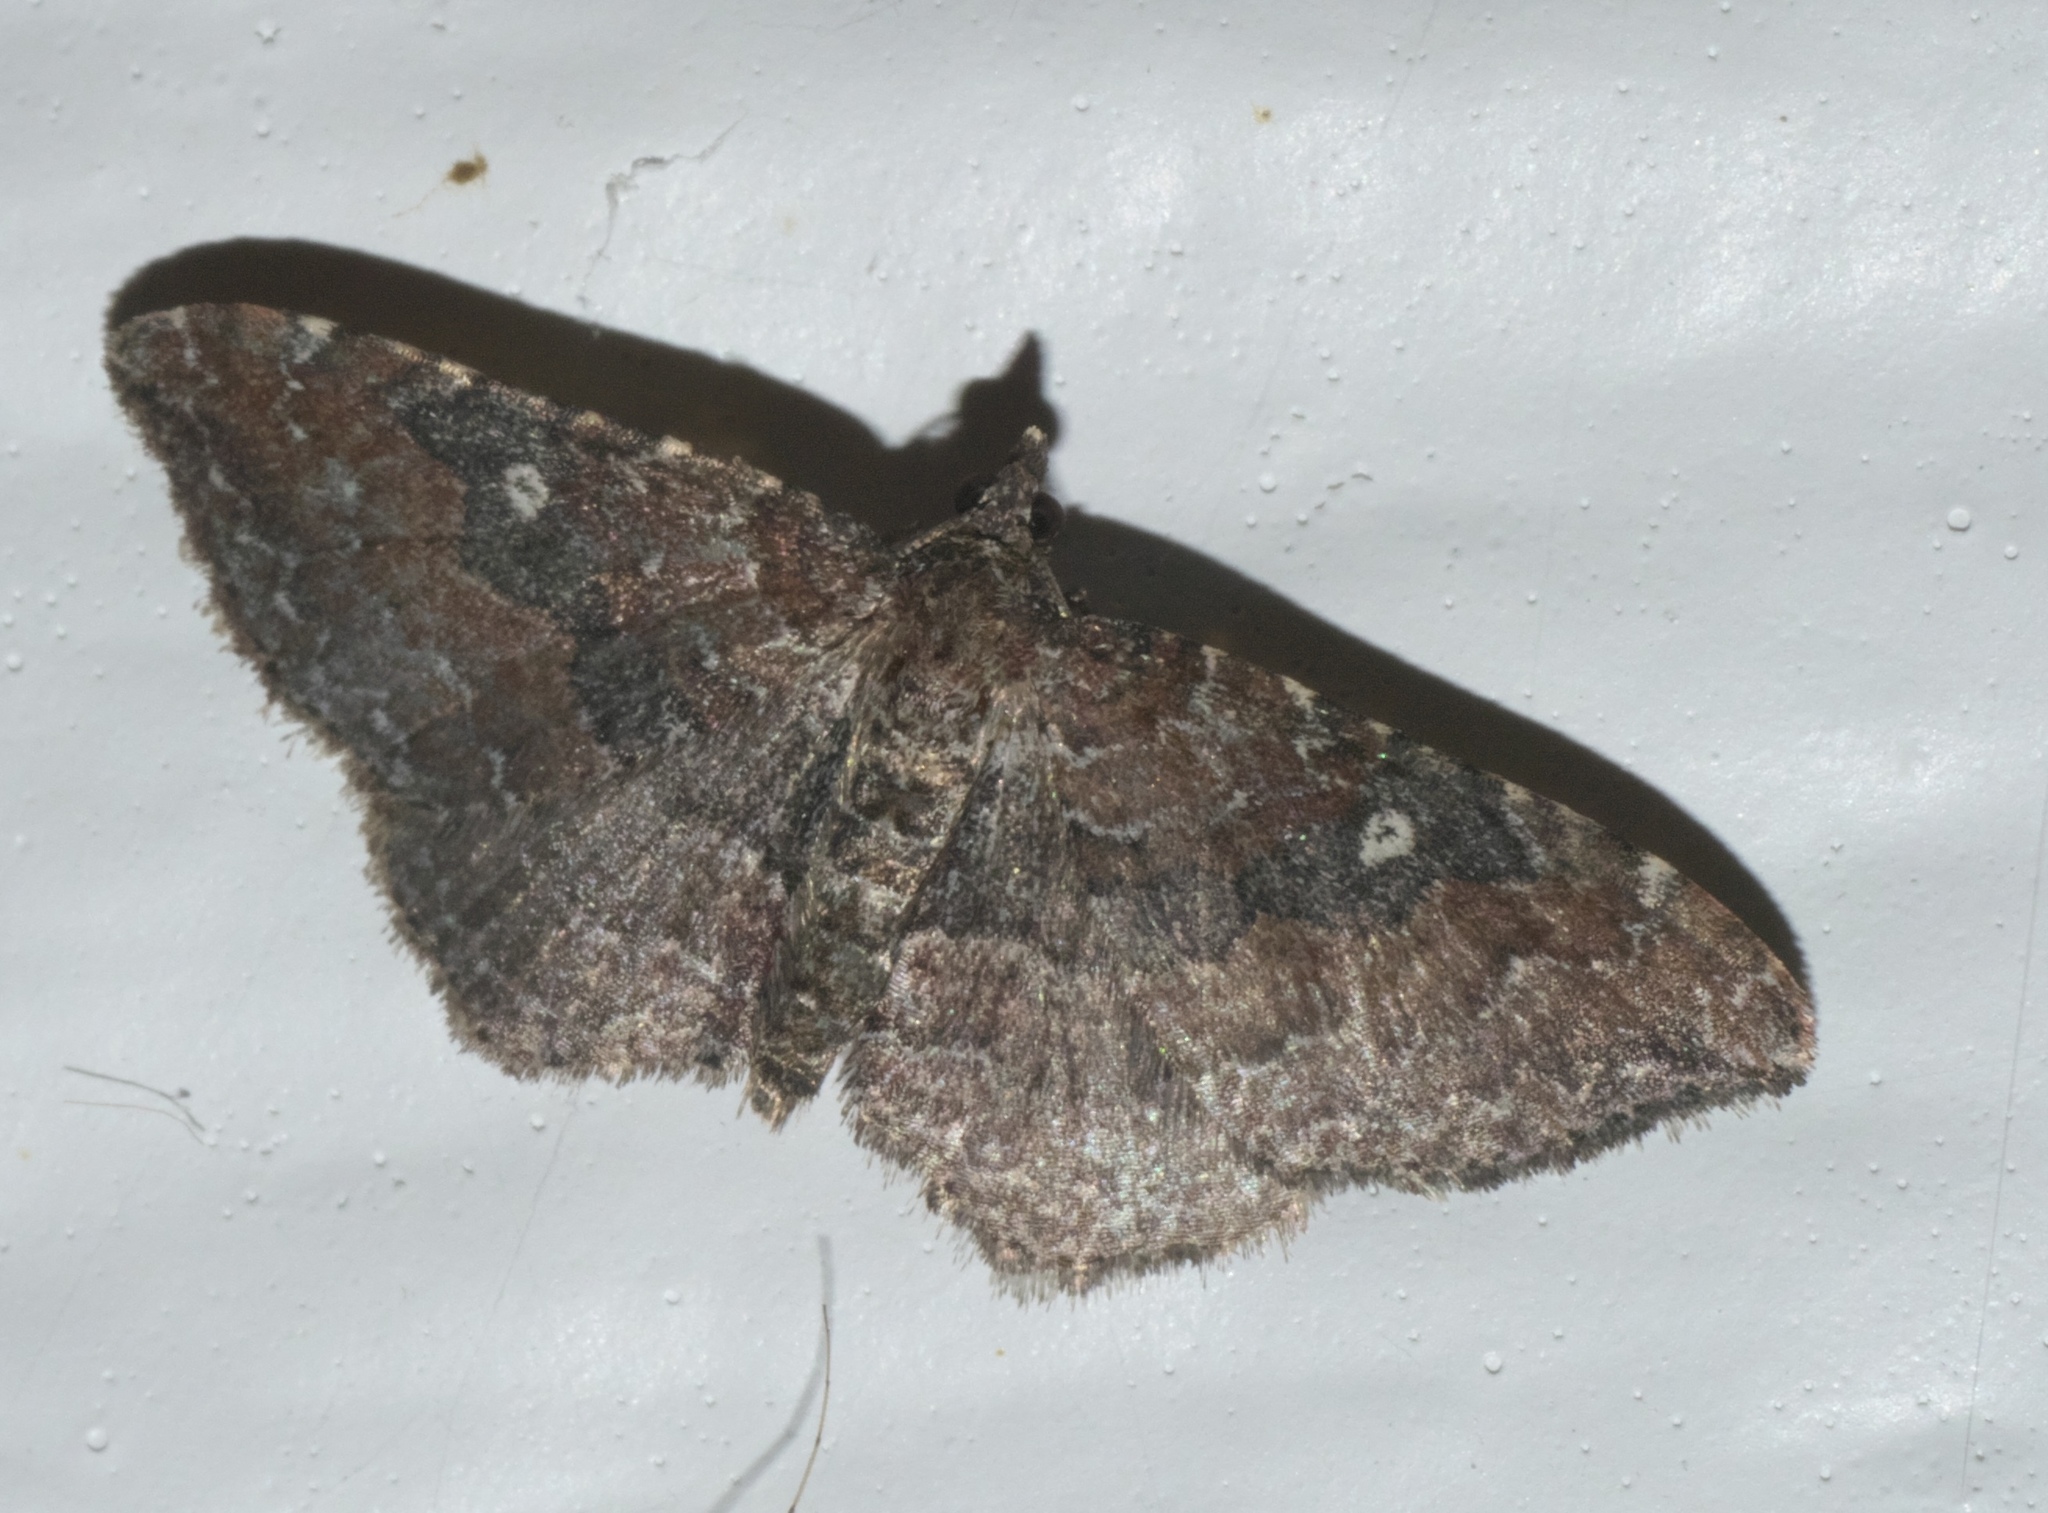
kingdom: Animalia
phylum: Arthropoda
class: Insecta
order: Lepidoptera
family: Geometridae
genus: Orthonama
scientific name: Orthonama obstipata
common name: The gem
